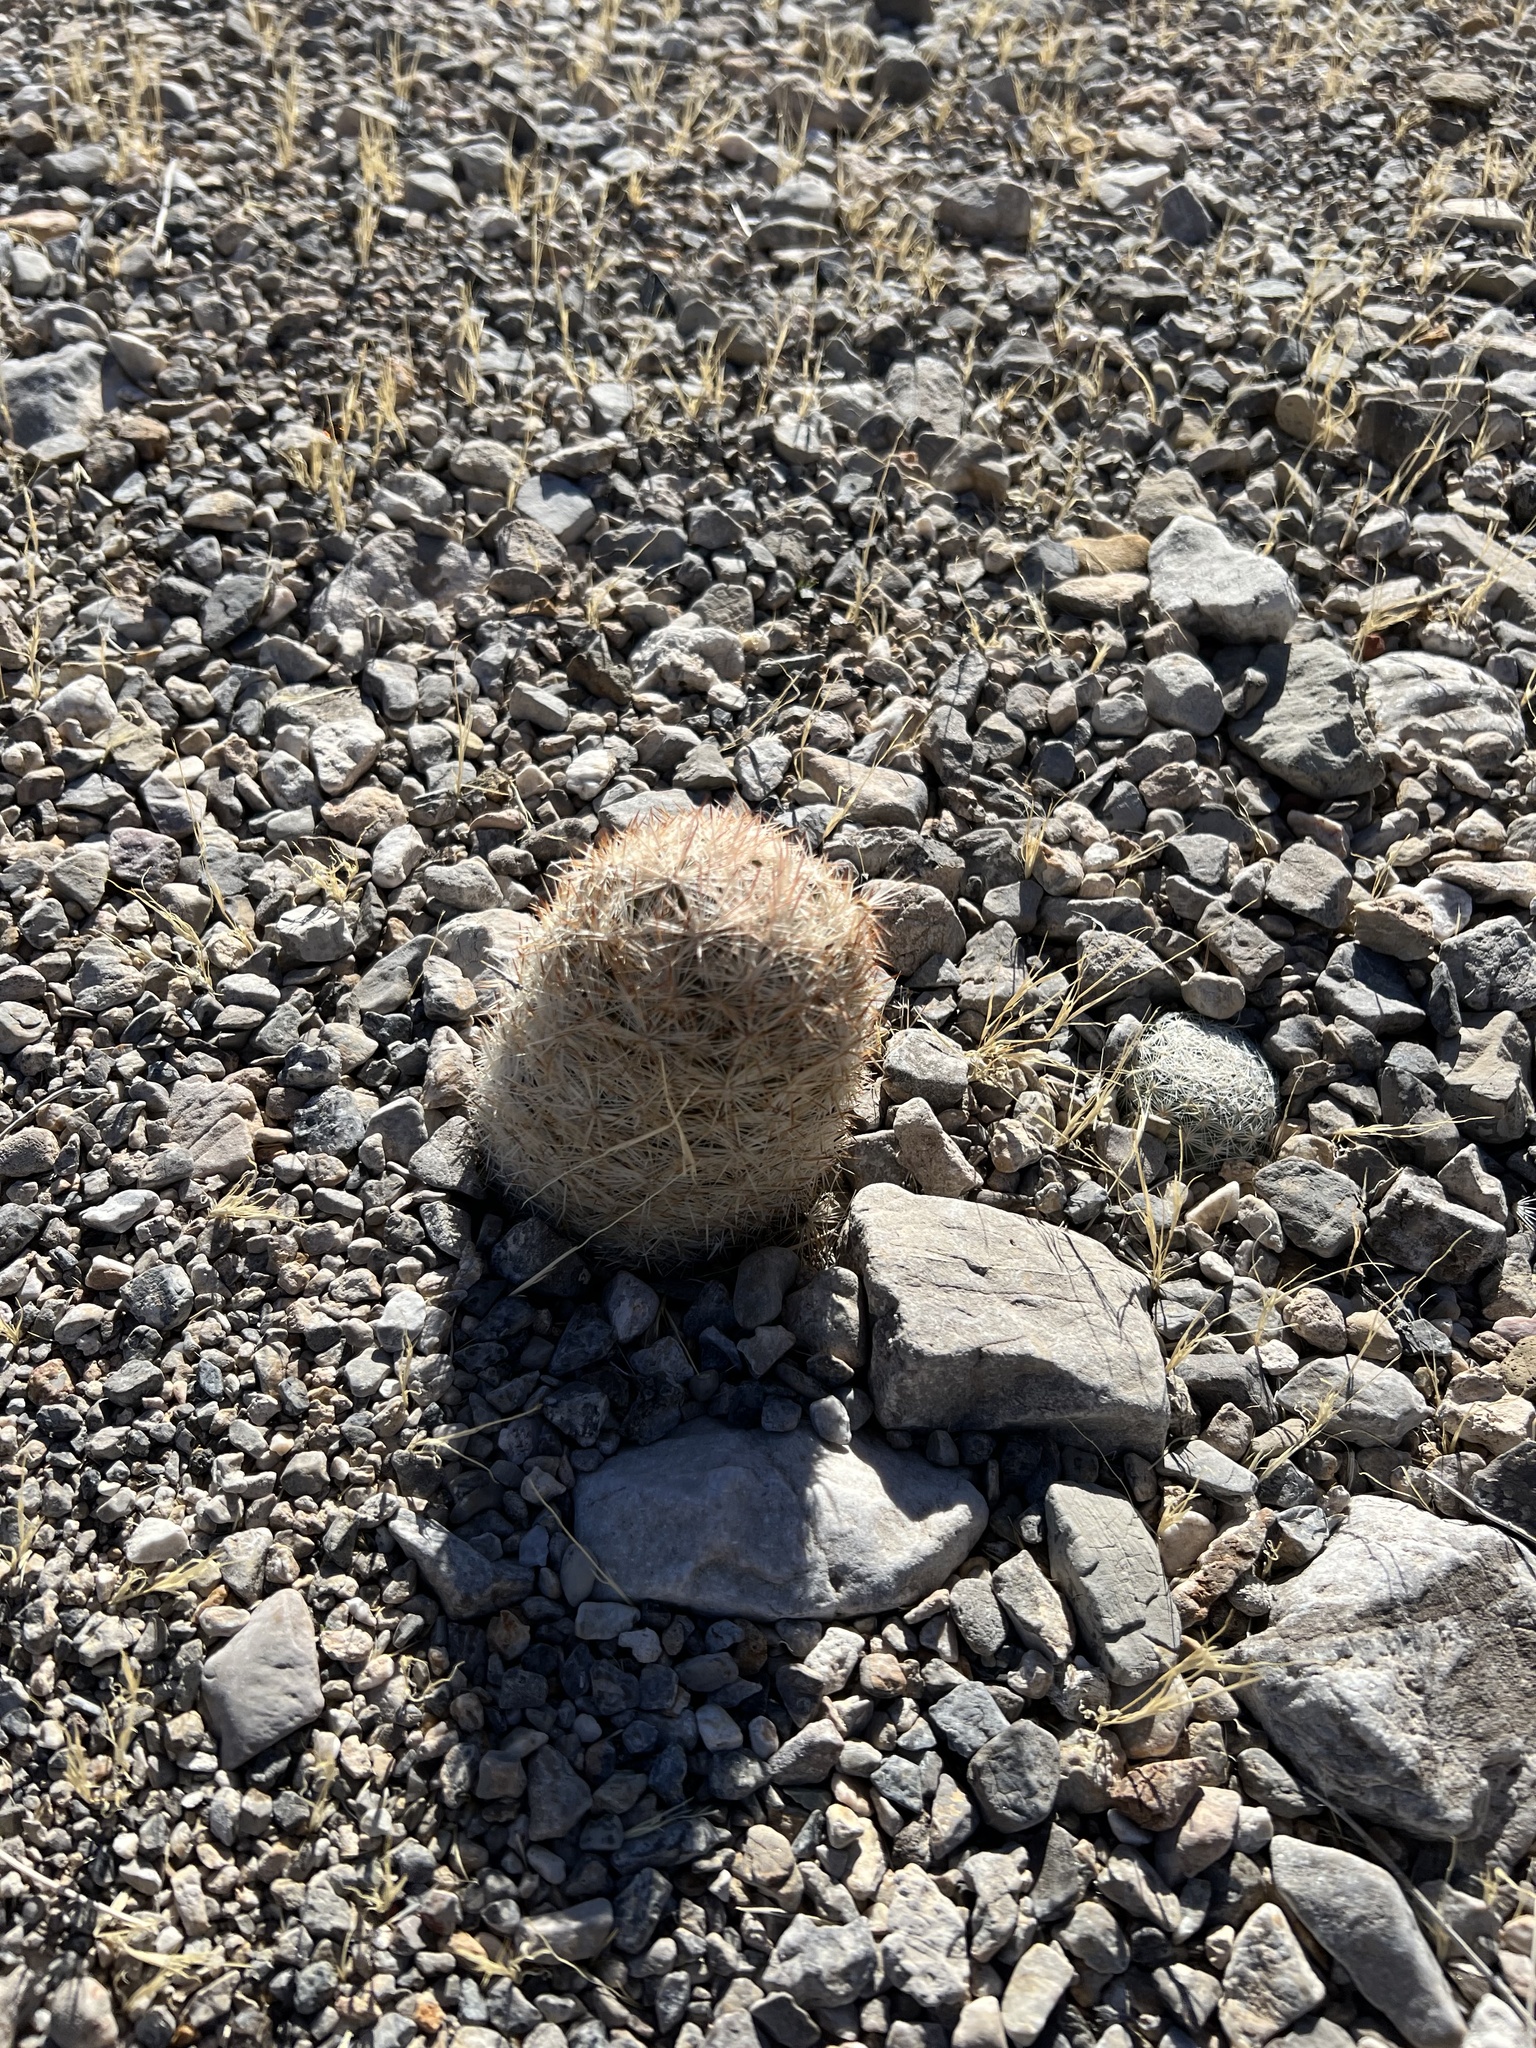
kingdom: Plantae
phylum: Tracheophyta
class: Magnoliopsida
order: Caryophyllales
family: Cactaceae
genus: Pelecyphora
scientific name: Pelecyphora dasyacantha
